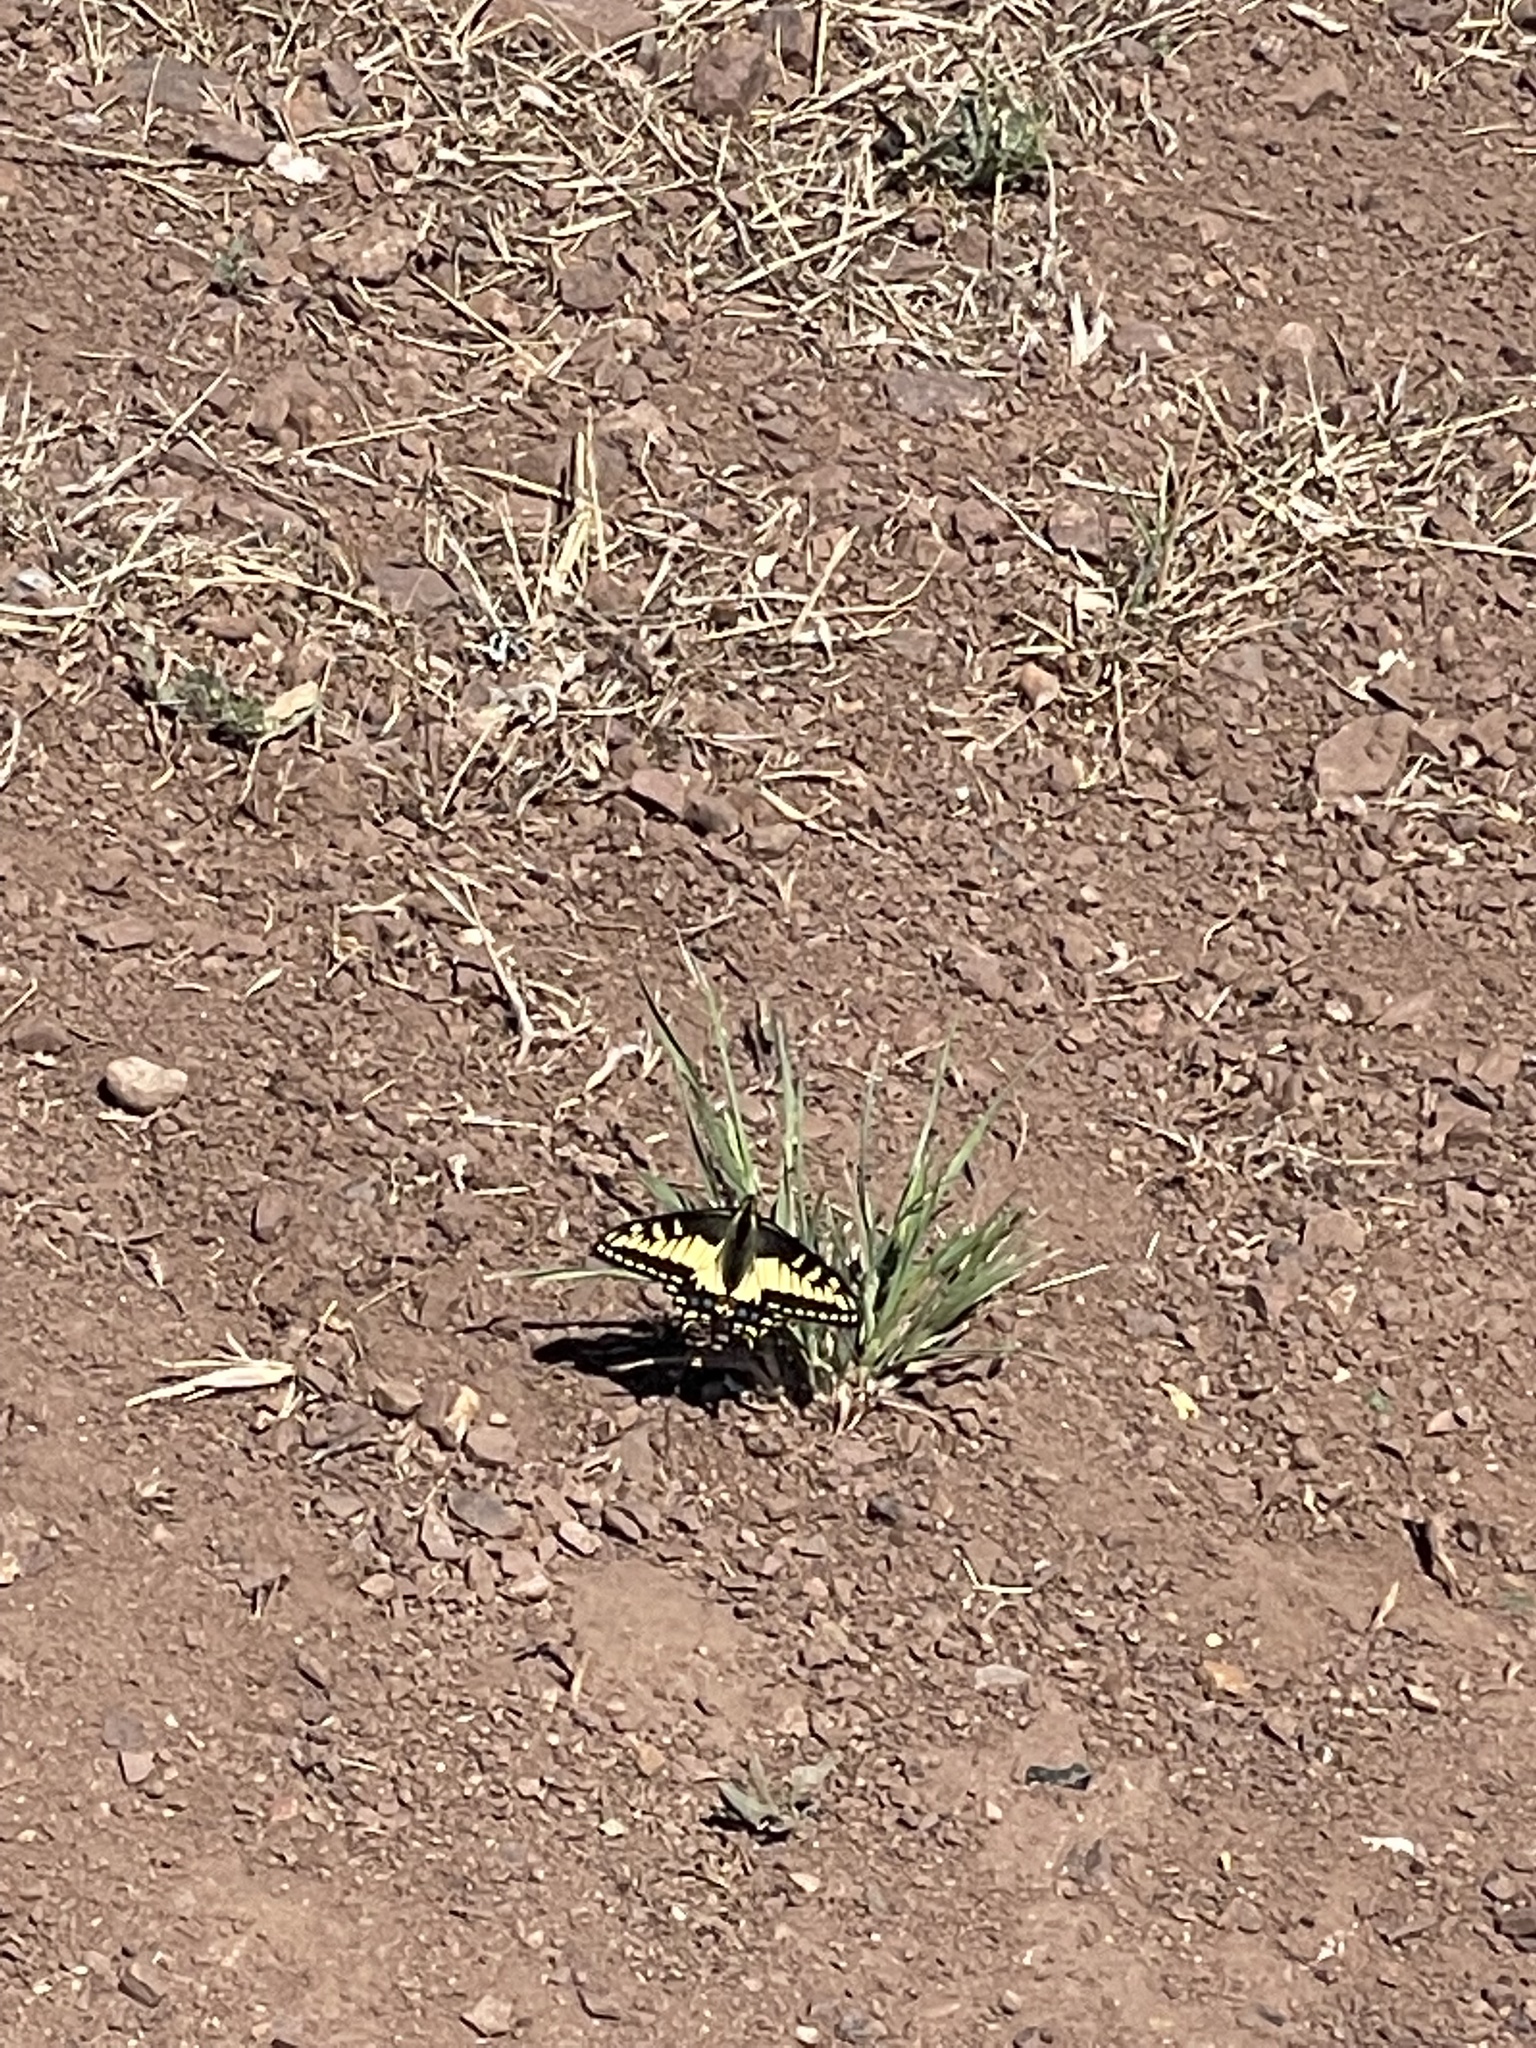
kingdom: Animalia
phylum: Arthropoda
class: Insecta
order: Lepidoptera
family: Papilionidae
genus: Papilio
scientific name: Papilio zelicaon
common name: Anise swallowtail
